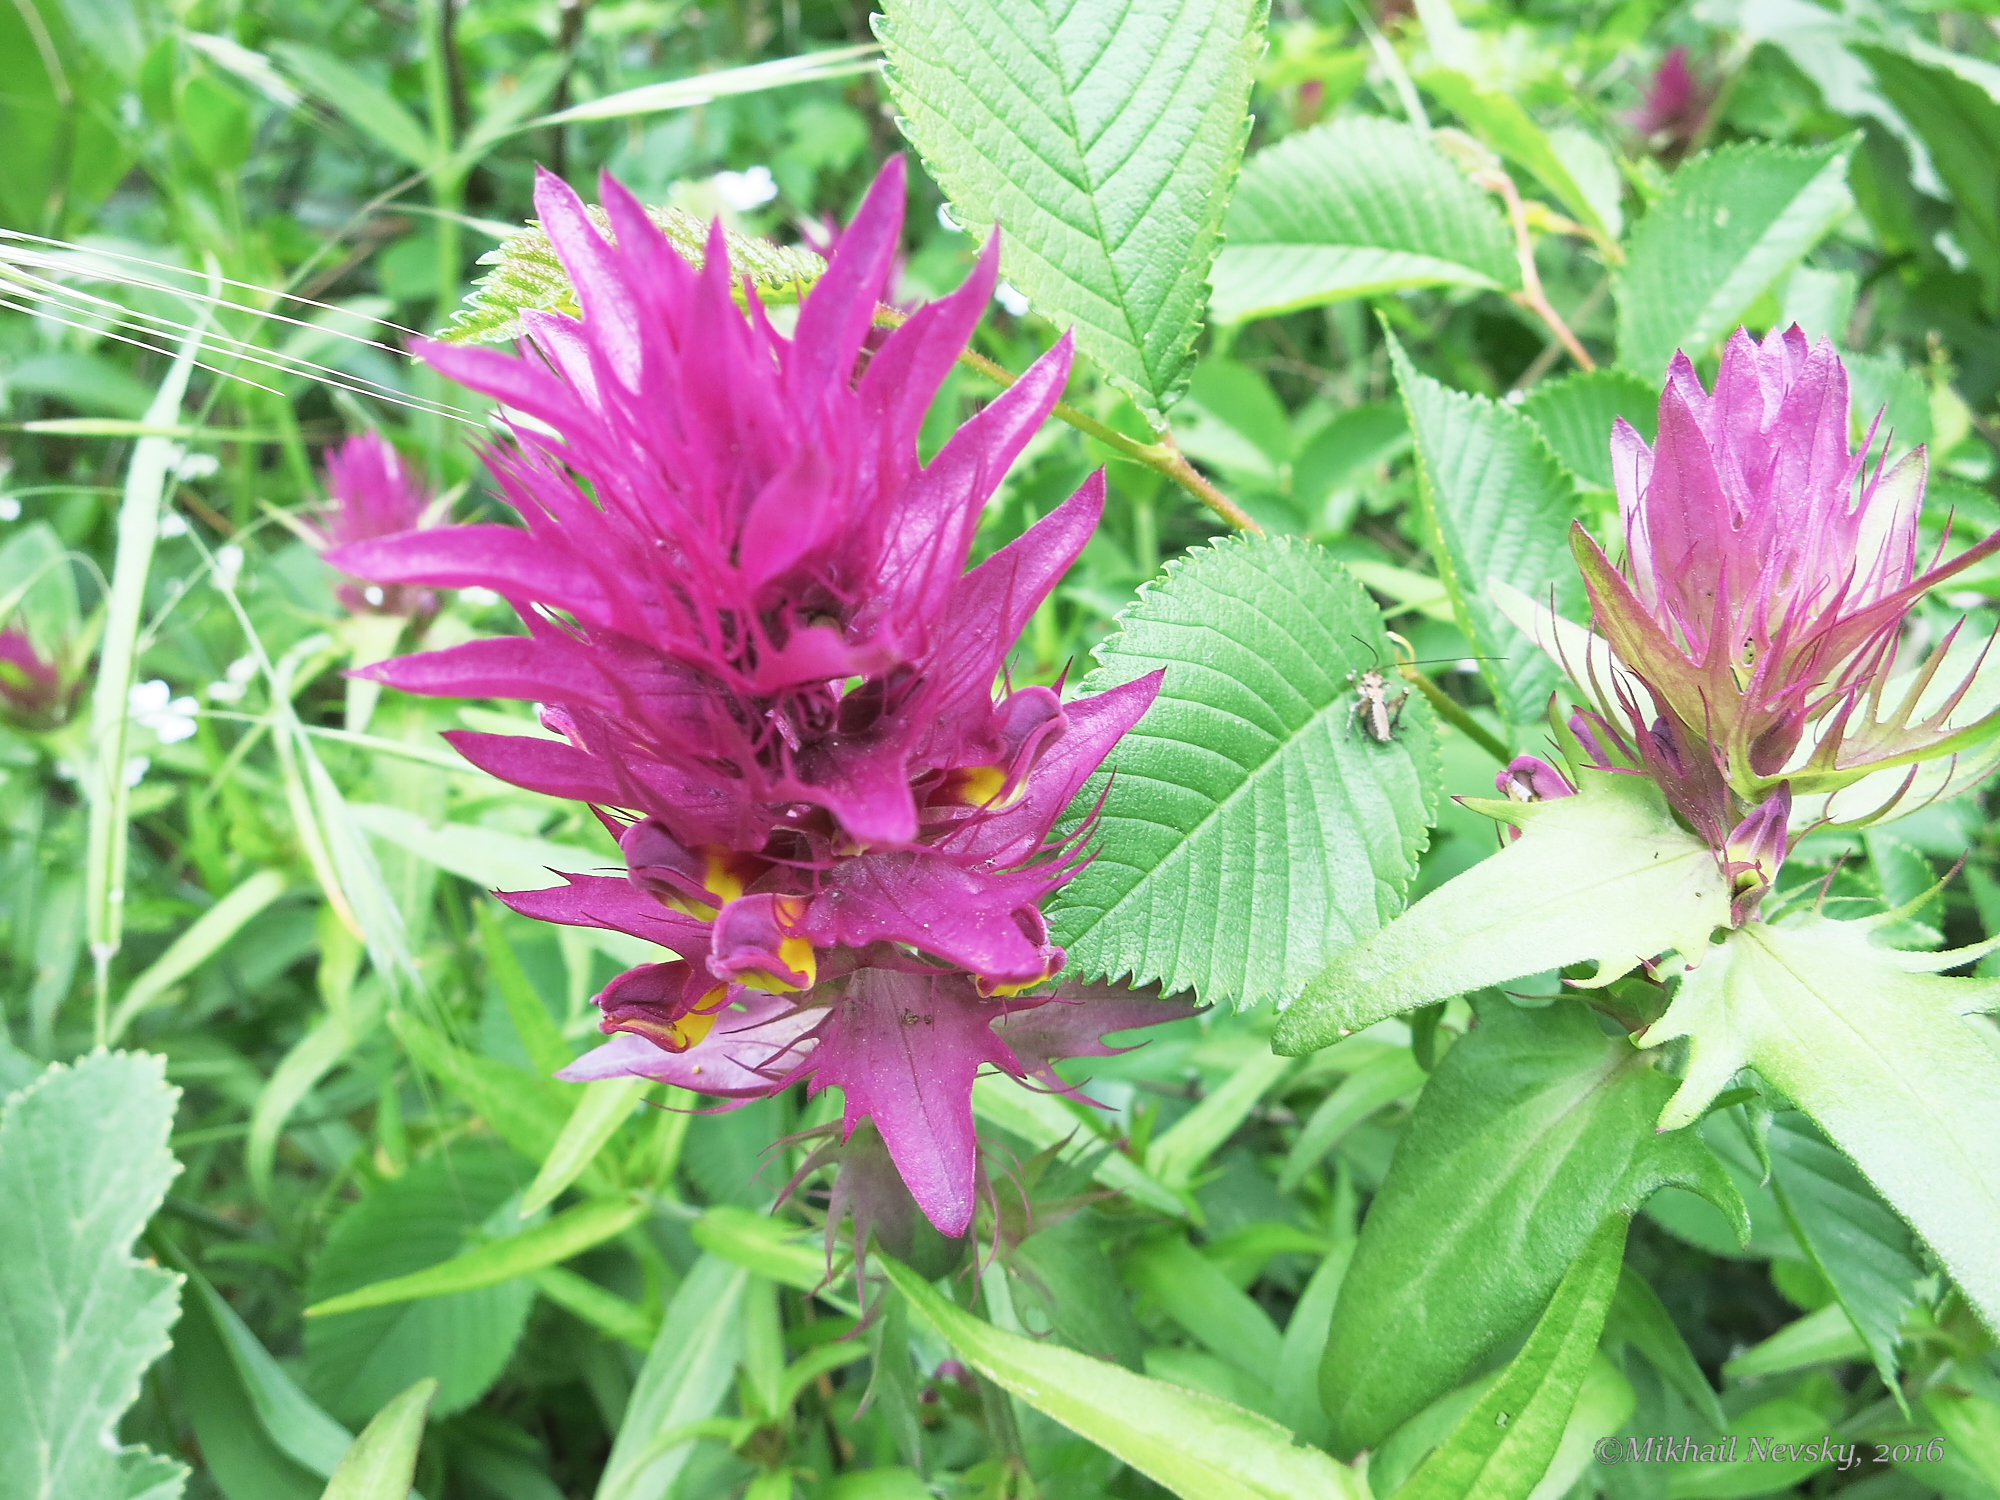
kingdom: Plantae
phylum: Tracheophyta
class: Magnoliopsida
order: Lamiales
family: Orobanchaceae
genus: Melampyrum
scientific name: Melampyrum arvense
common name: Field cow-wheat
